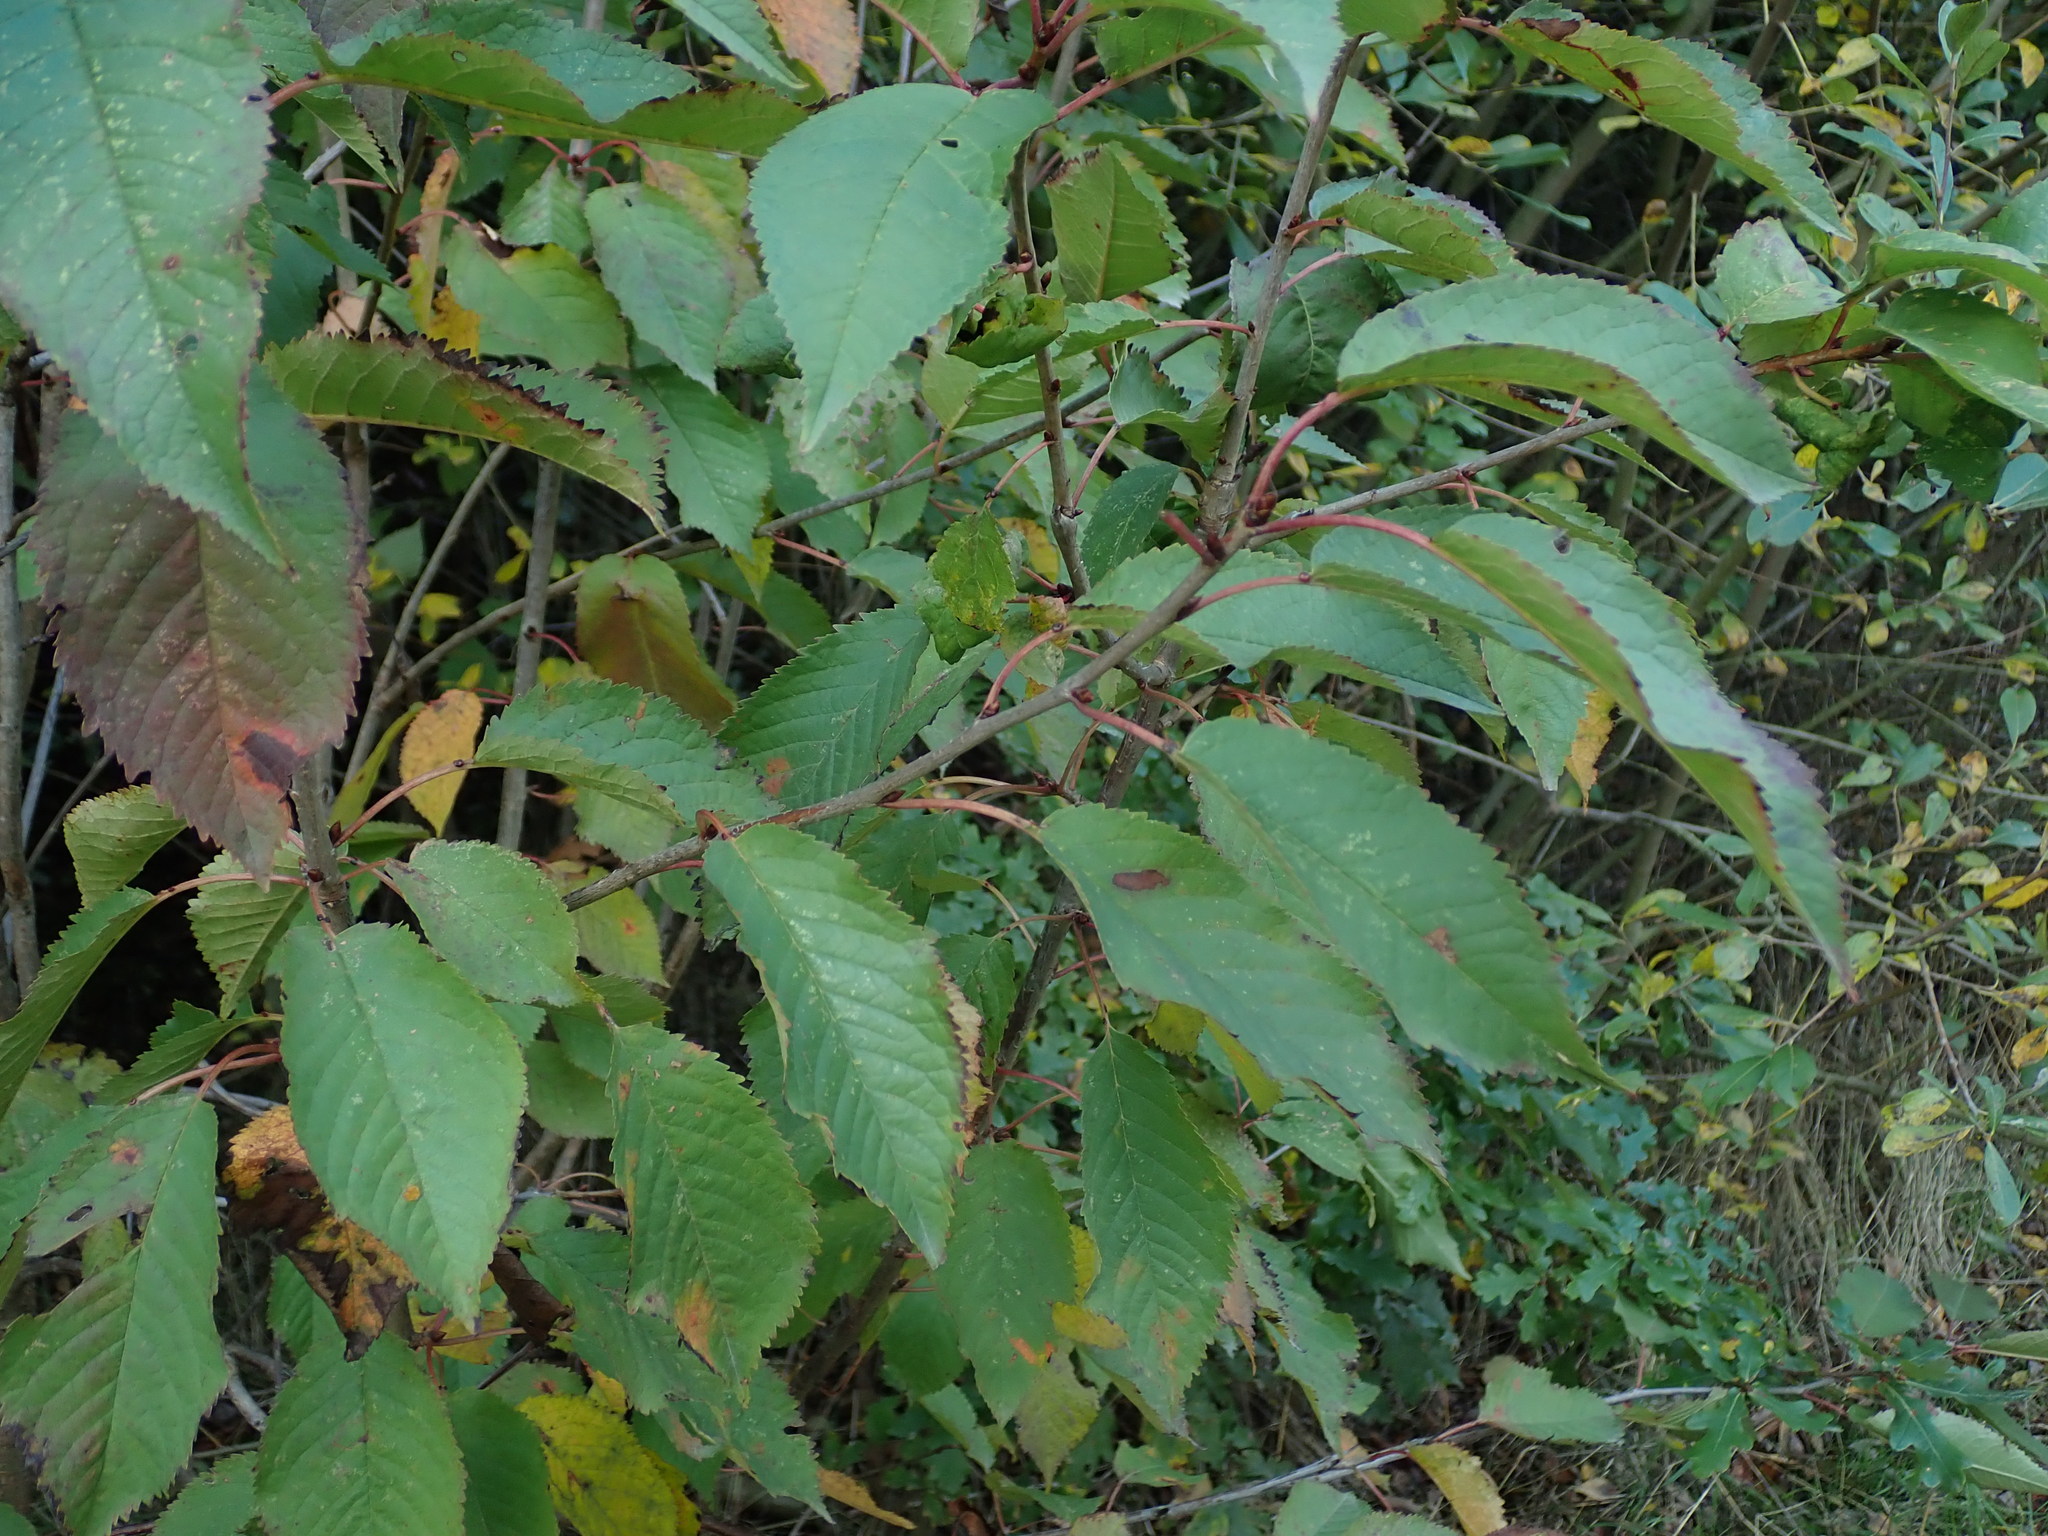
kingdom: Plantae
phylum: Tracheophyta
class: Magnoliopsida
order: Rosales
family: Rosaceae
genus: Prunus
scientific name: Prunus avium
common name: Sweet cherry
